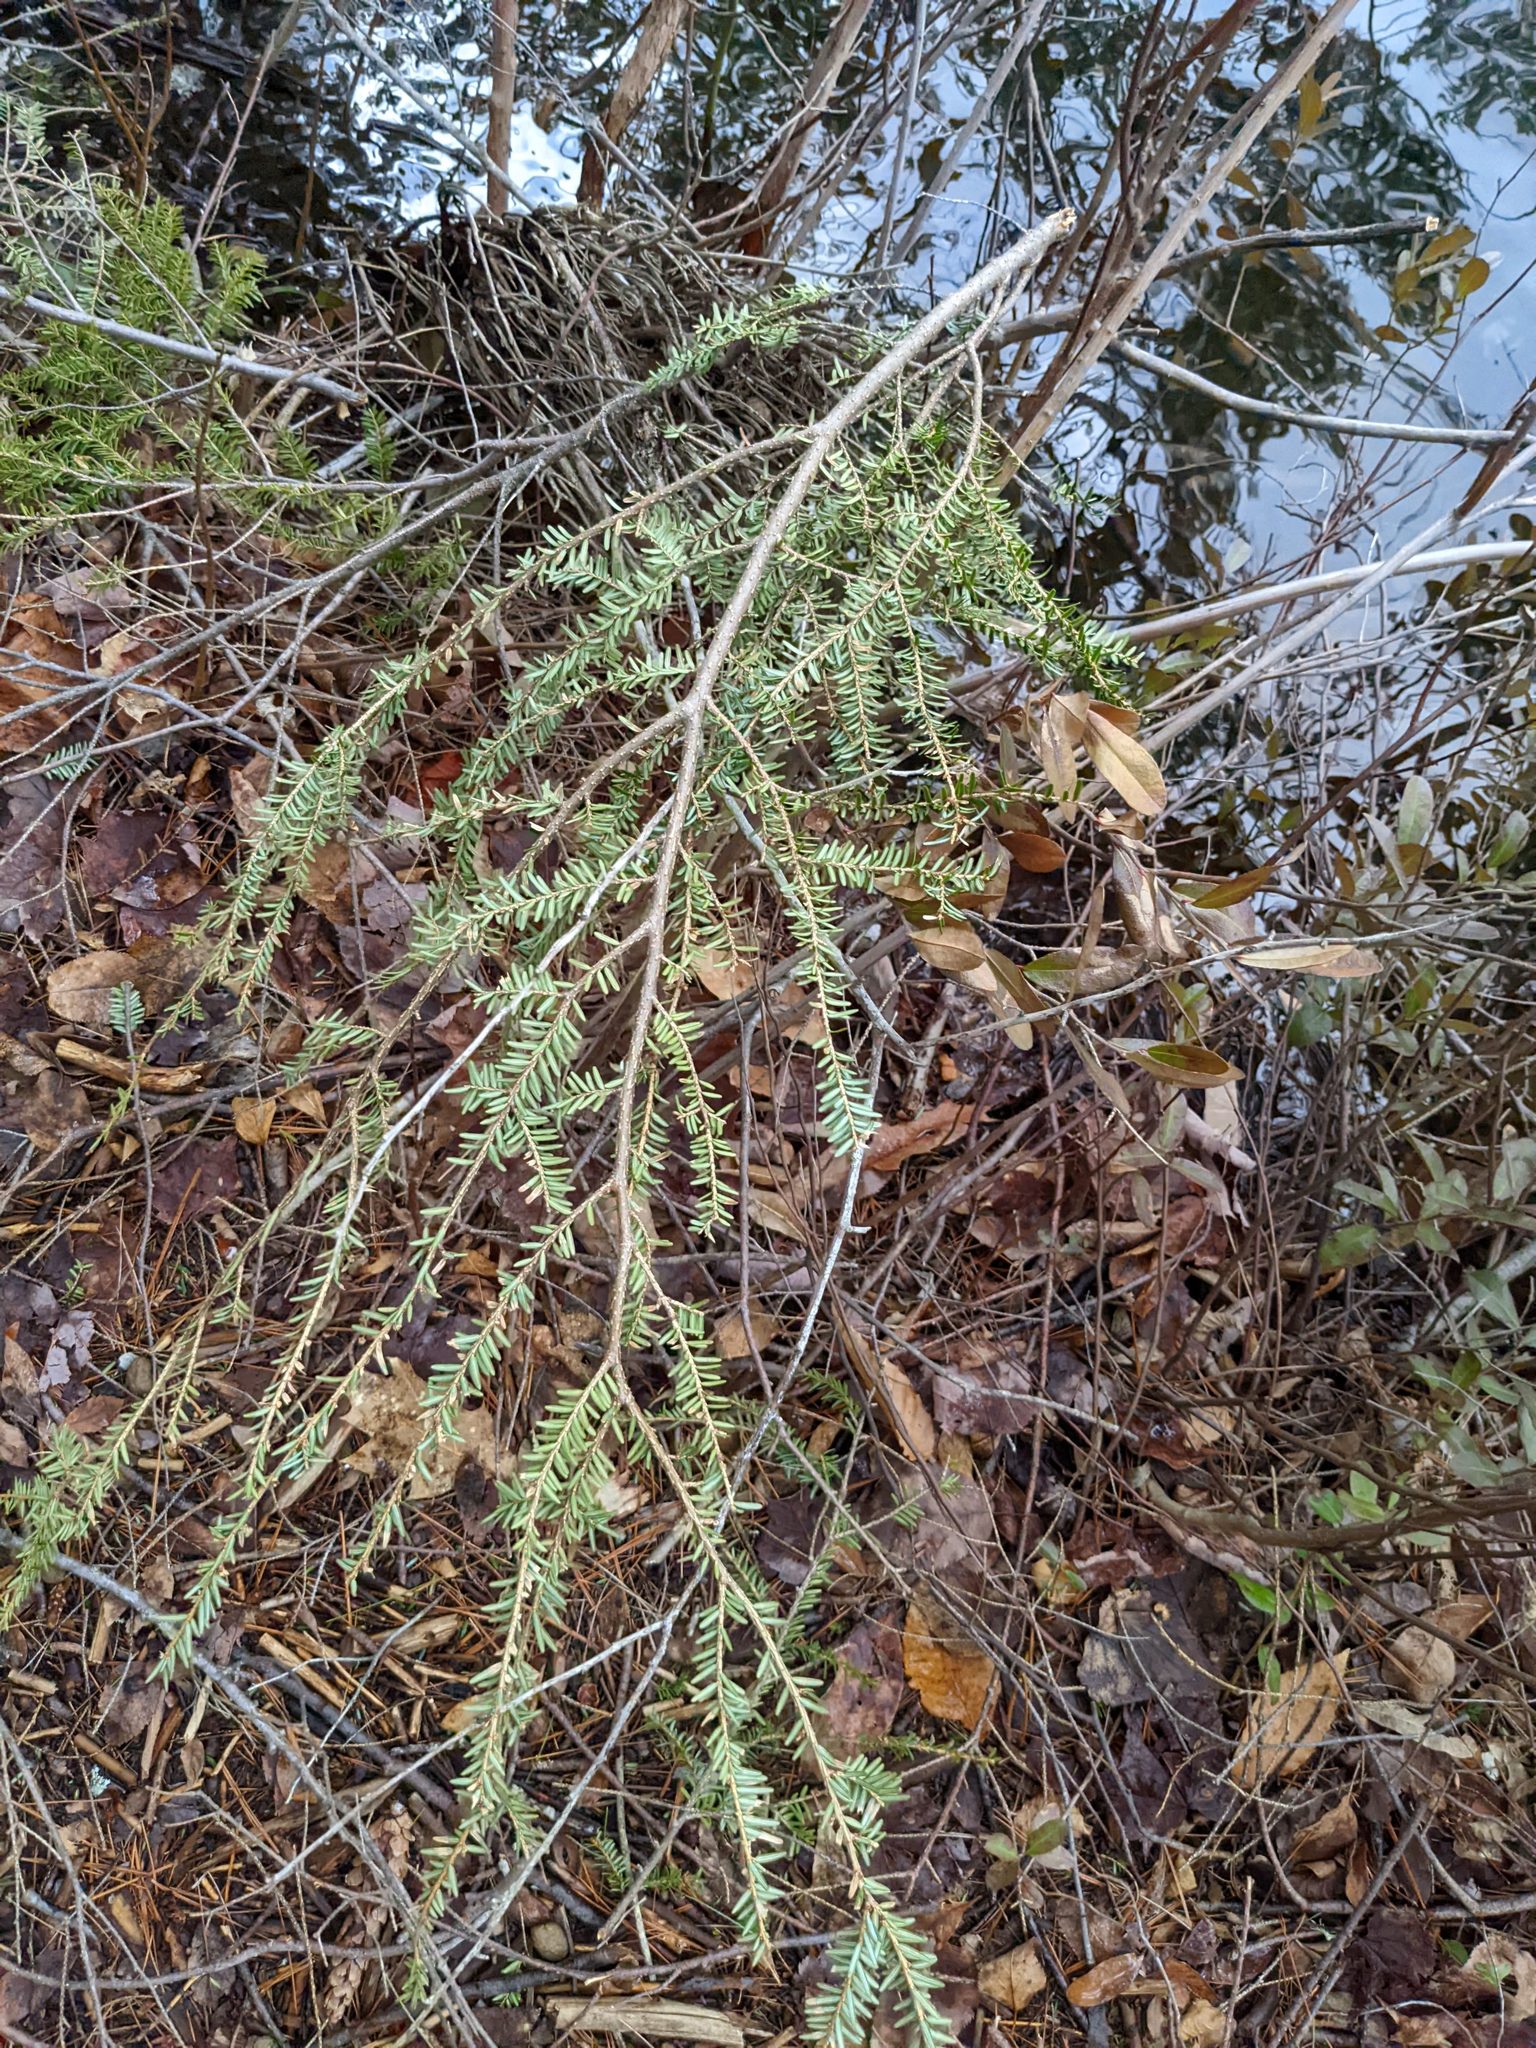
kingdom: Plantae
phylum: Tracheophyta
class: Pinopsida
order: Pinales
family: Pinaceae
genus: Tsuga
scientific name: Tsuga canadensis
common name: Eastern hemlock
